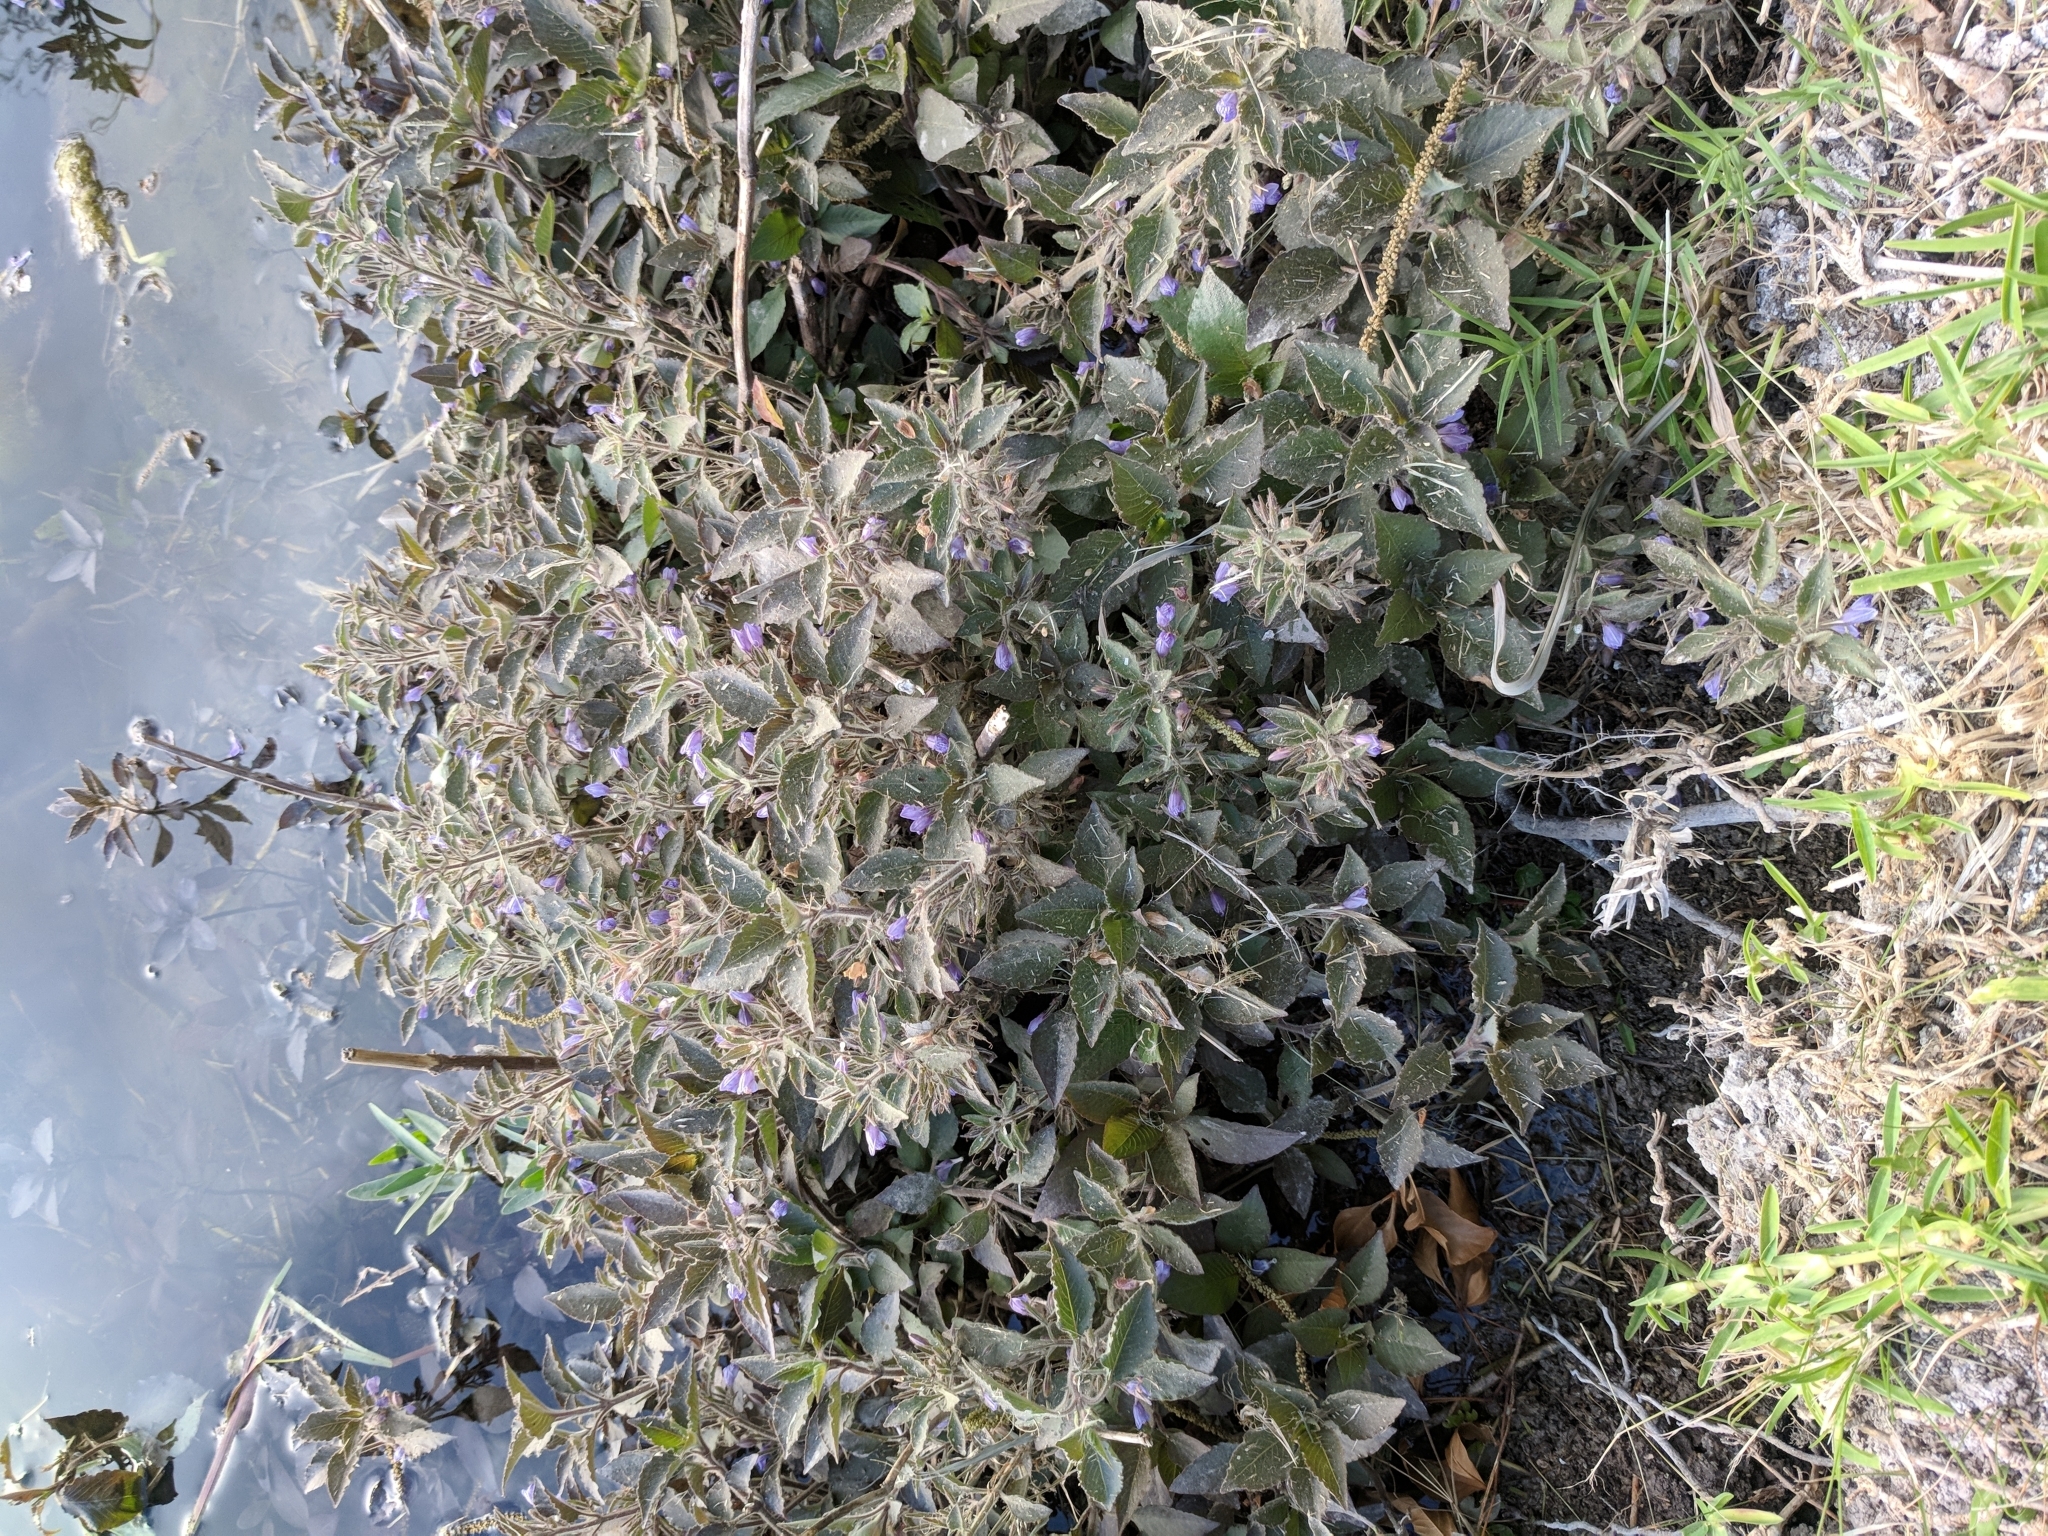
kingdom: Plantae
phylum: Tracheophyta
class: Magnoliopsida
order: Lamiales
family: Acanthaceae
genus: Hygrophila
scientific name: Hygrophila corymbosa
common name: Starhorn
